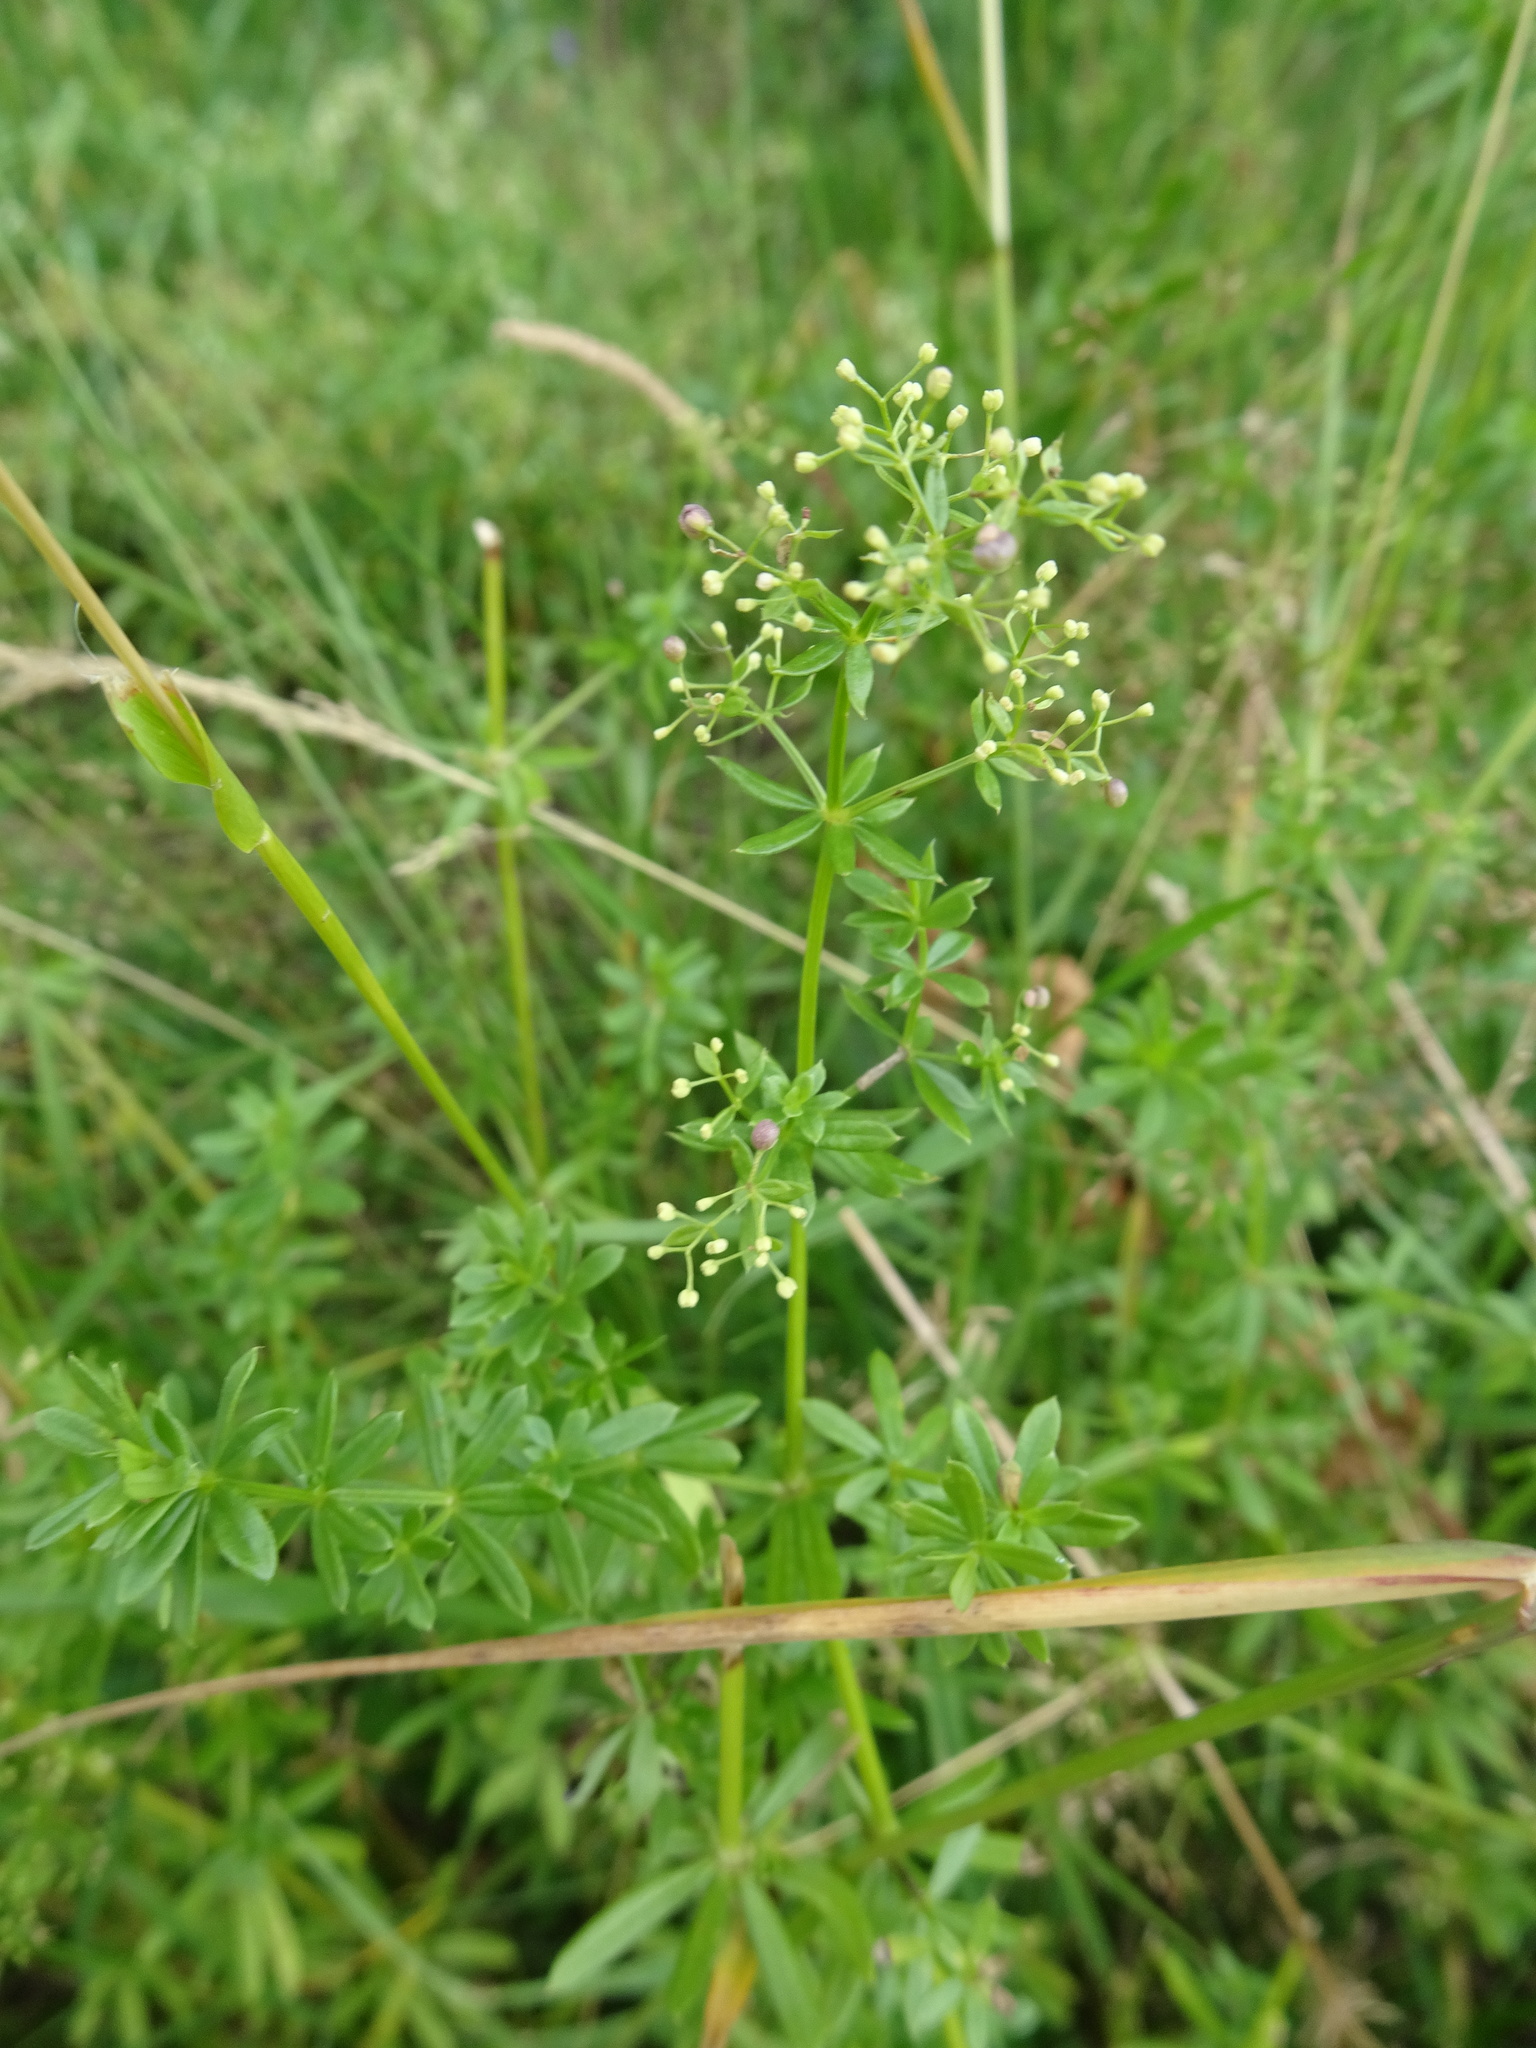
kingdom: Plantae
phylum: Tracheophyta
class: Magnoliopsida
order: Gentianales
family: Rubiaceae
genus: Galium
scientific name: Galium album
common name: White bedstraw
